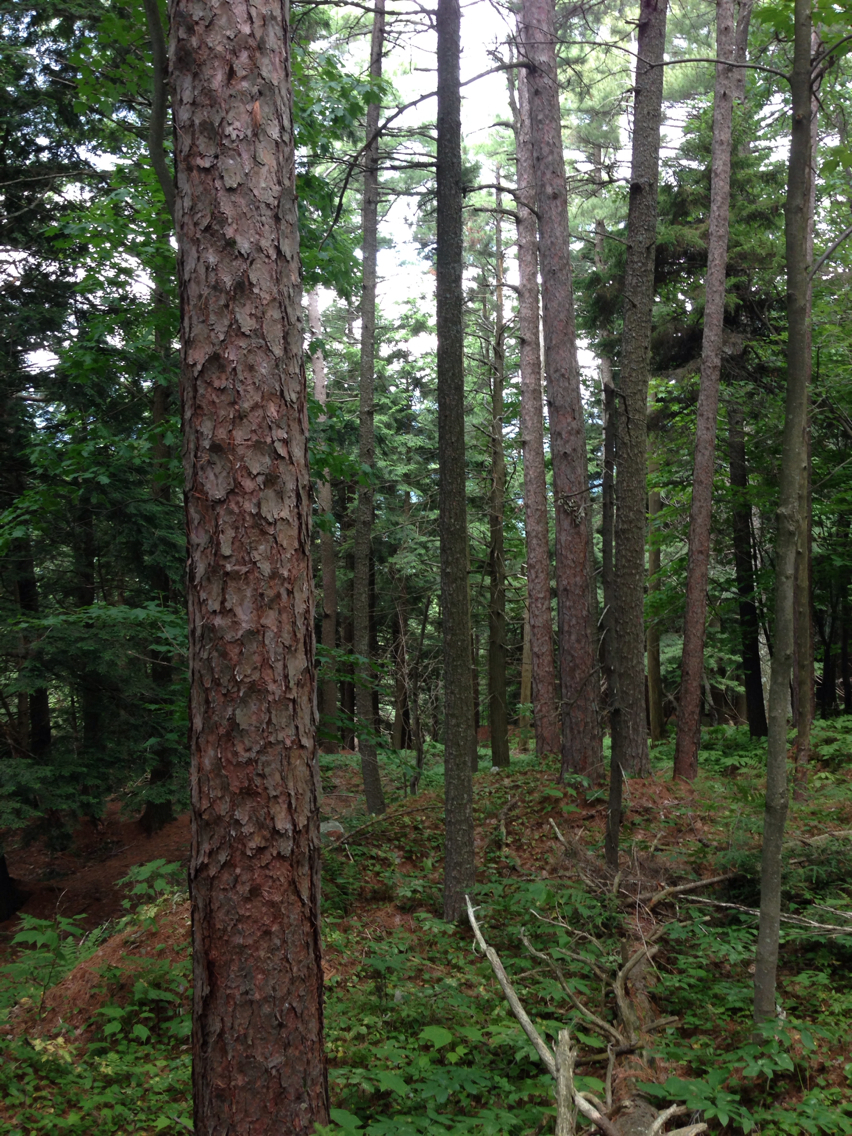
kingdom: Plantae
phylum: Tracheophyta
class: Pinopsida
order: Pinales
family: Pinaceae
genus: Pinus
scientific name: Pinus resinosa
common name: Norway pine
